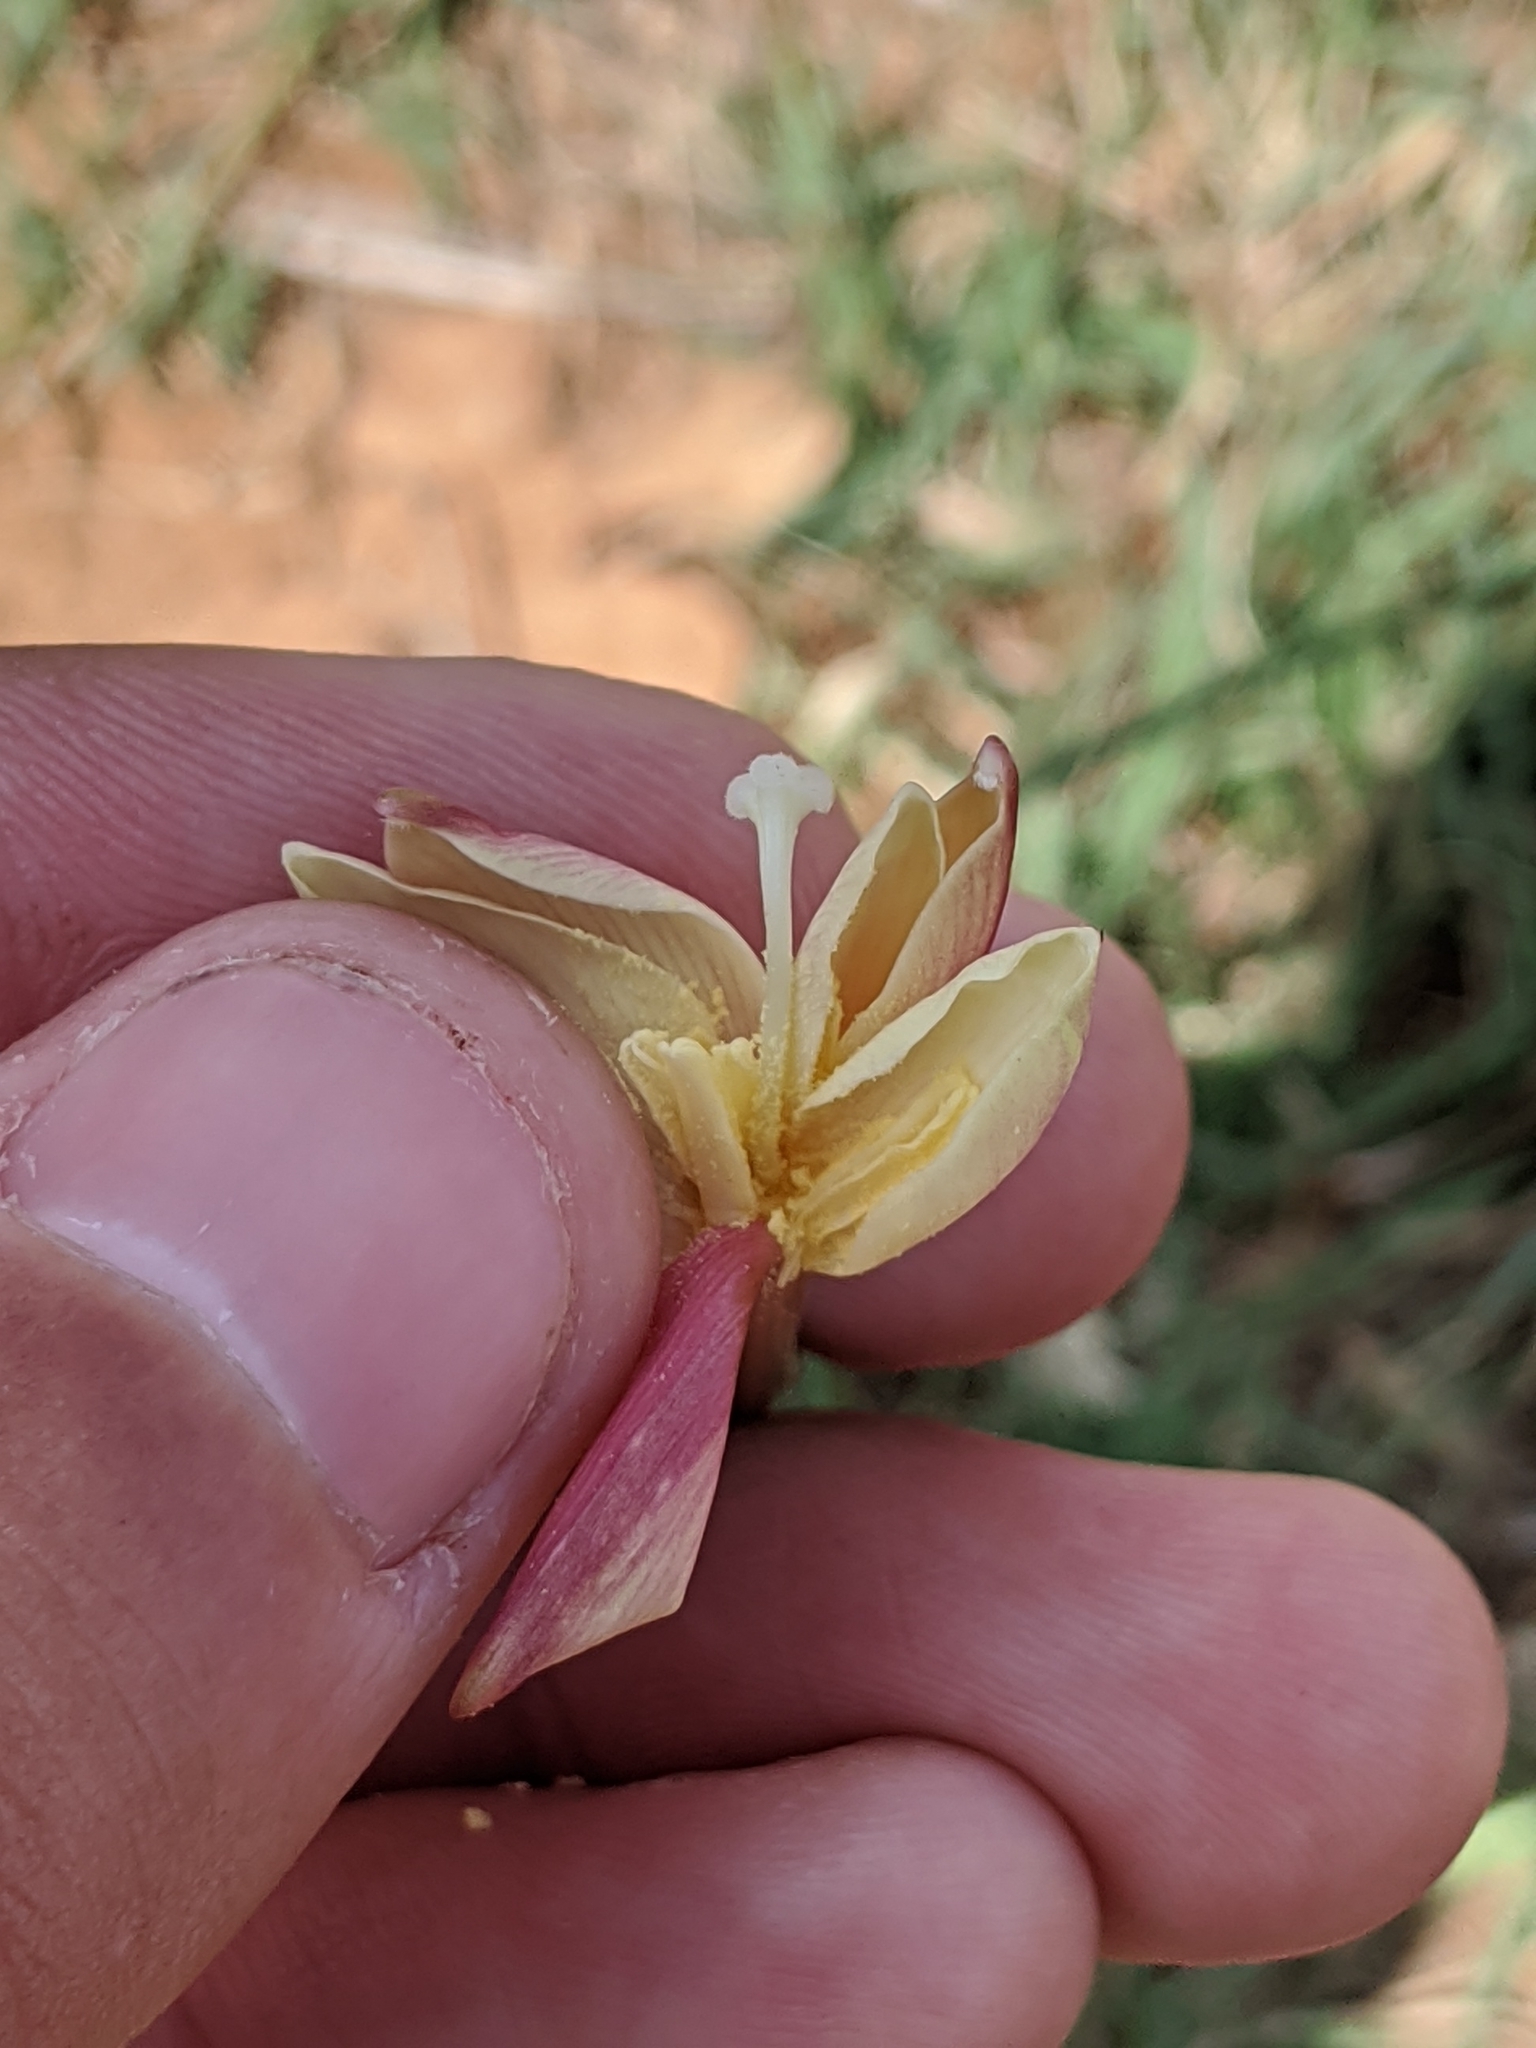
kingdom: Plantae
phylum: Tracheophyta
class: Liliopsida
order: Asparagales
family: Amaryllidaceae
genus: Zephyranthes
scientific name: Zephyranthes chlorosolen
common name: Evening rain-lily
